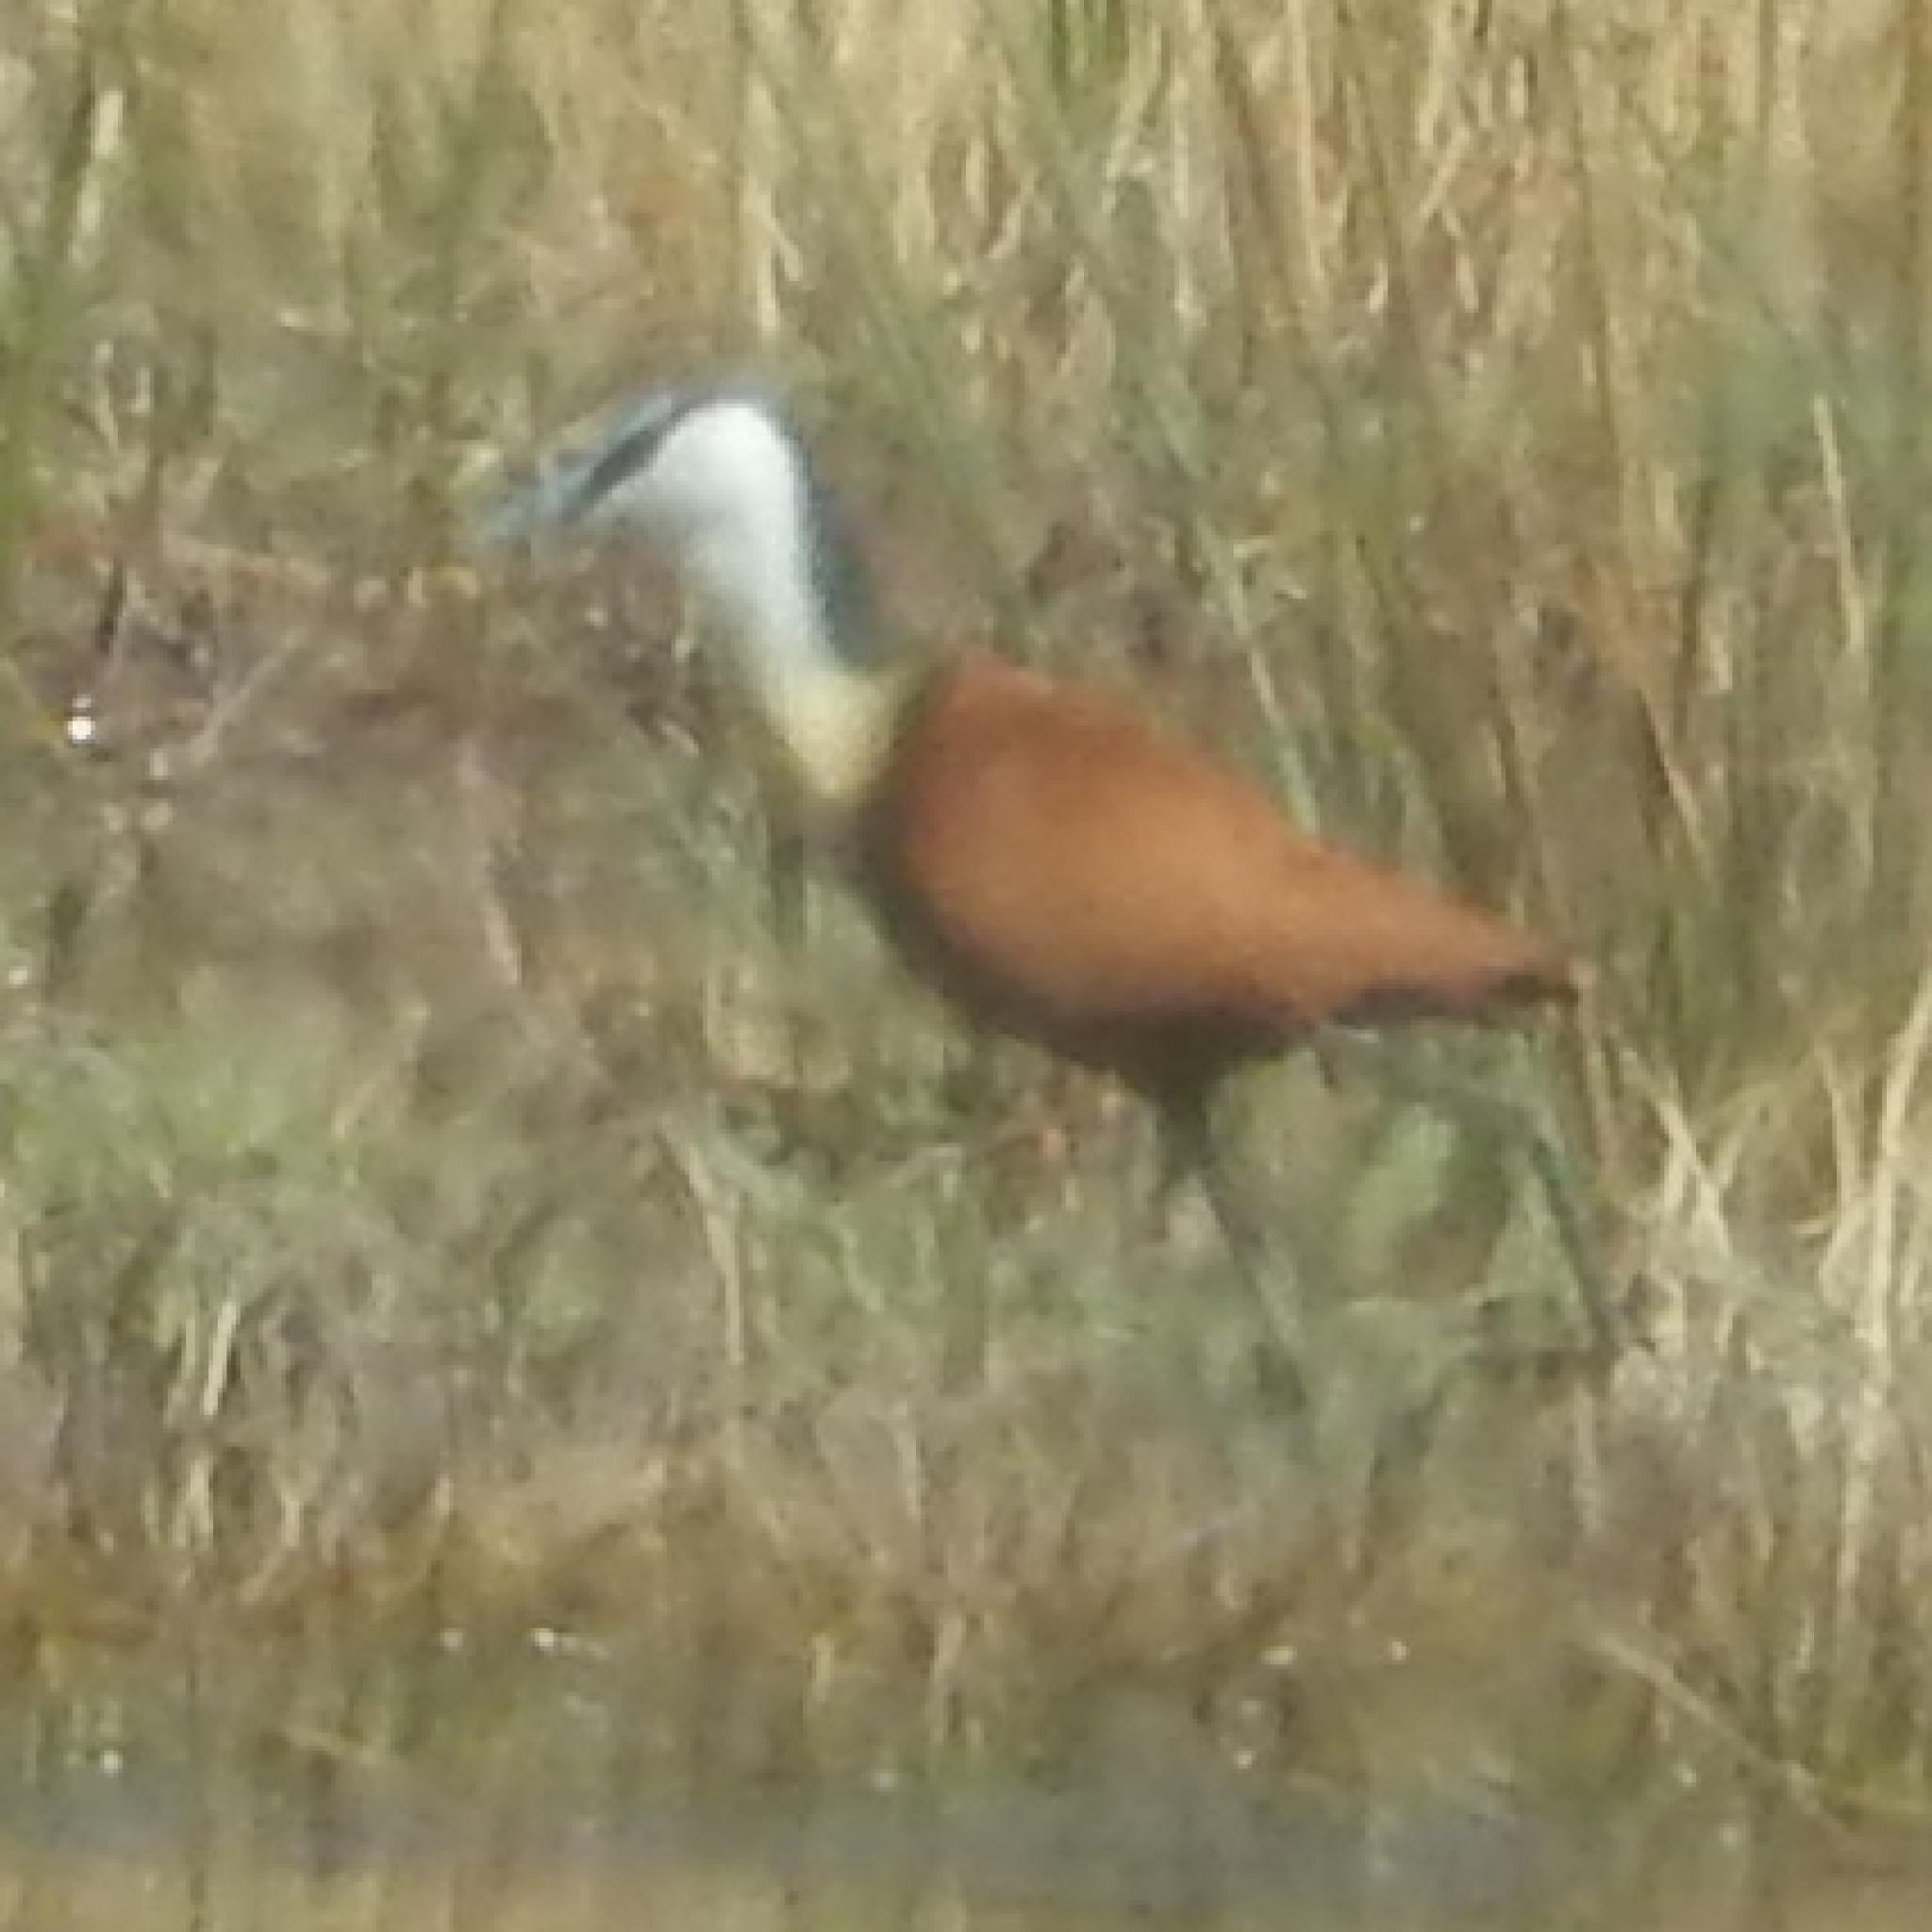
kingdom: Animalia
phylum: Chordata
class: Aves
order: Charadriiformes
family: Jacanidae
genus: Actophilornis
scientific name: Actophilornis africanus
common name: African jacana
